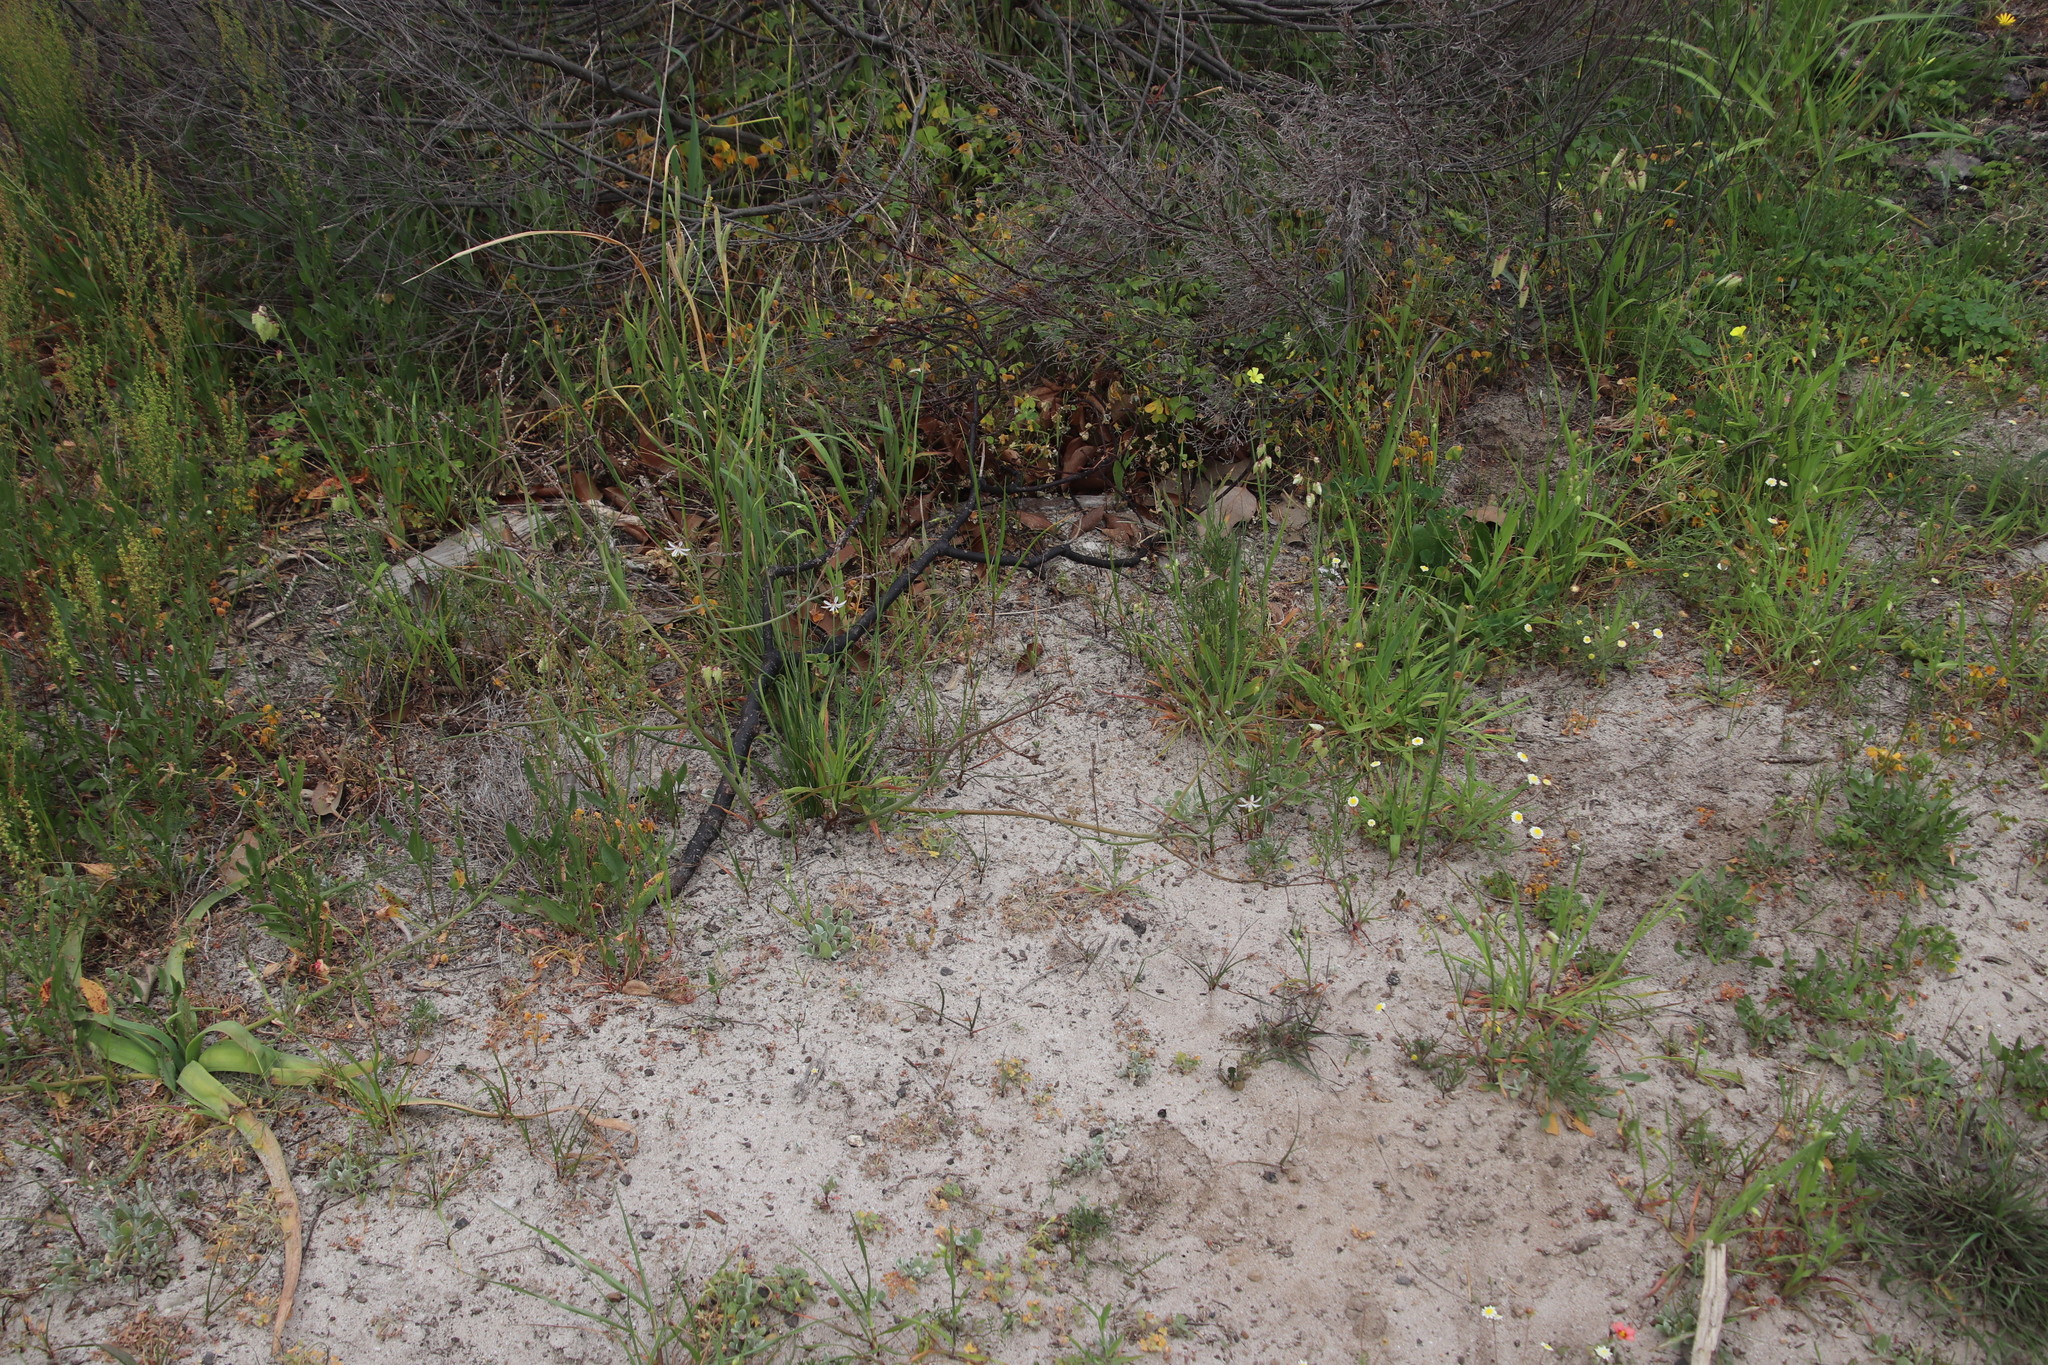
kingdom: Plantae
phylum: Tracheophyta
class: Liliopsida
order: Asparagales
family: Asphodelaceae
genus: Trachyandra
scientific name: Trachyandra revoluta
